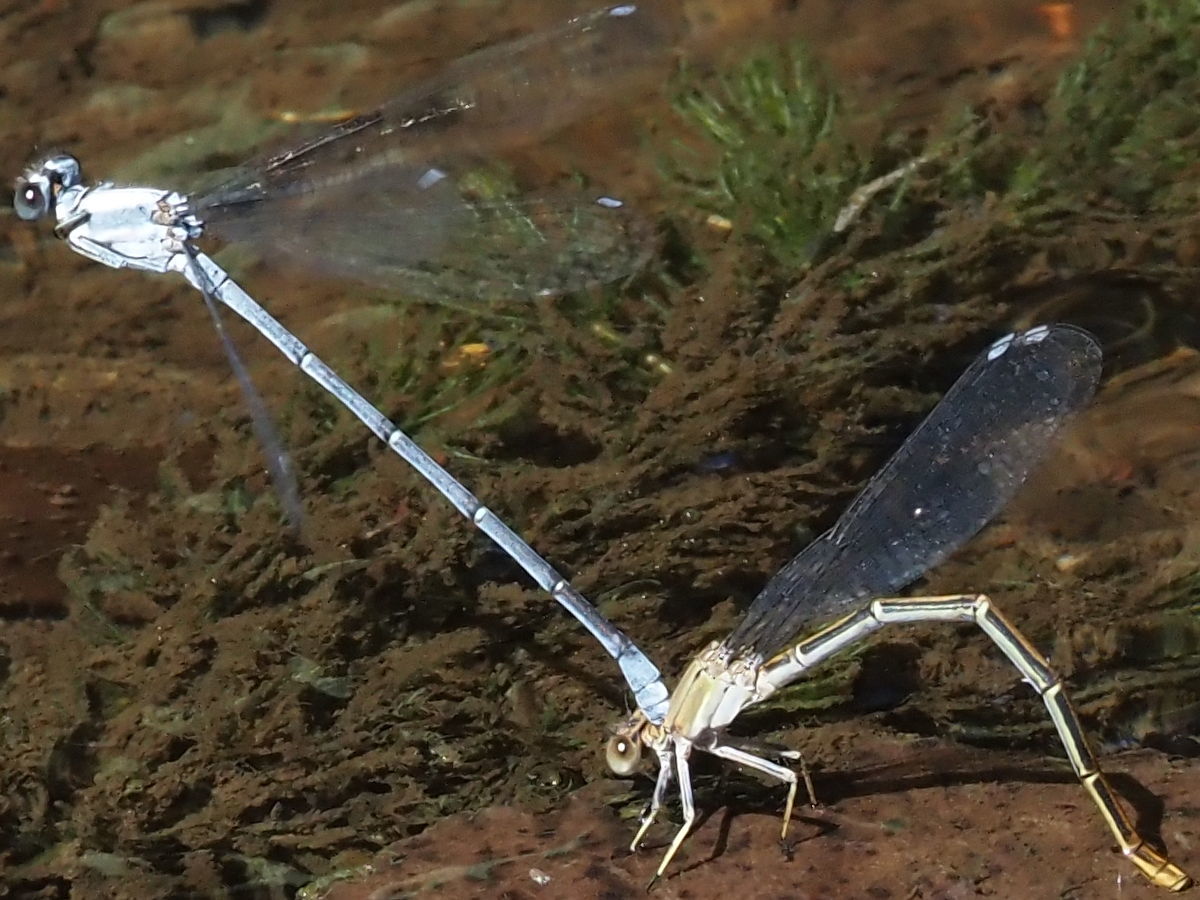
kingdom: Animalia
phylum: Arthropoda
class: Insecta
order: Odonata
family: Coenagrionidae
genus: Argia
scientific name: Argia moesta
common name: Powdered dancer
